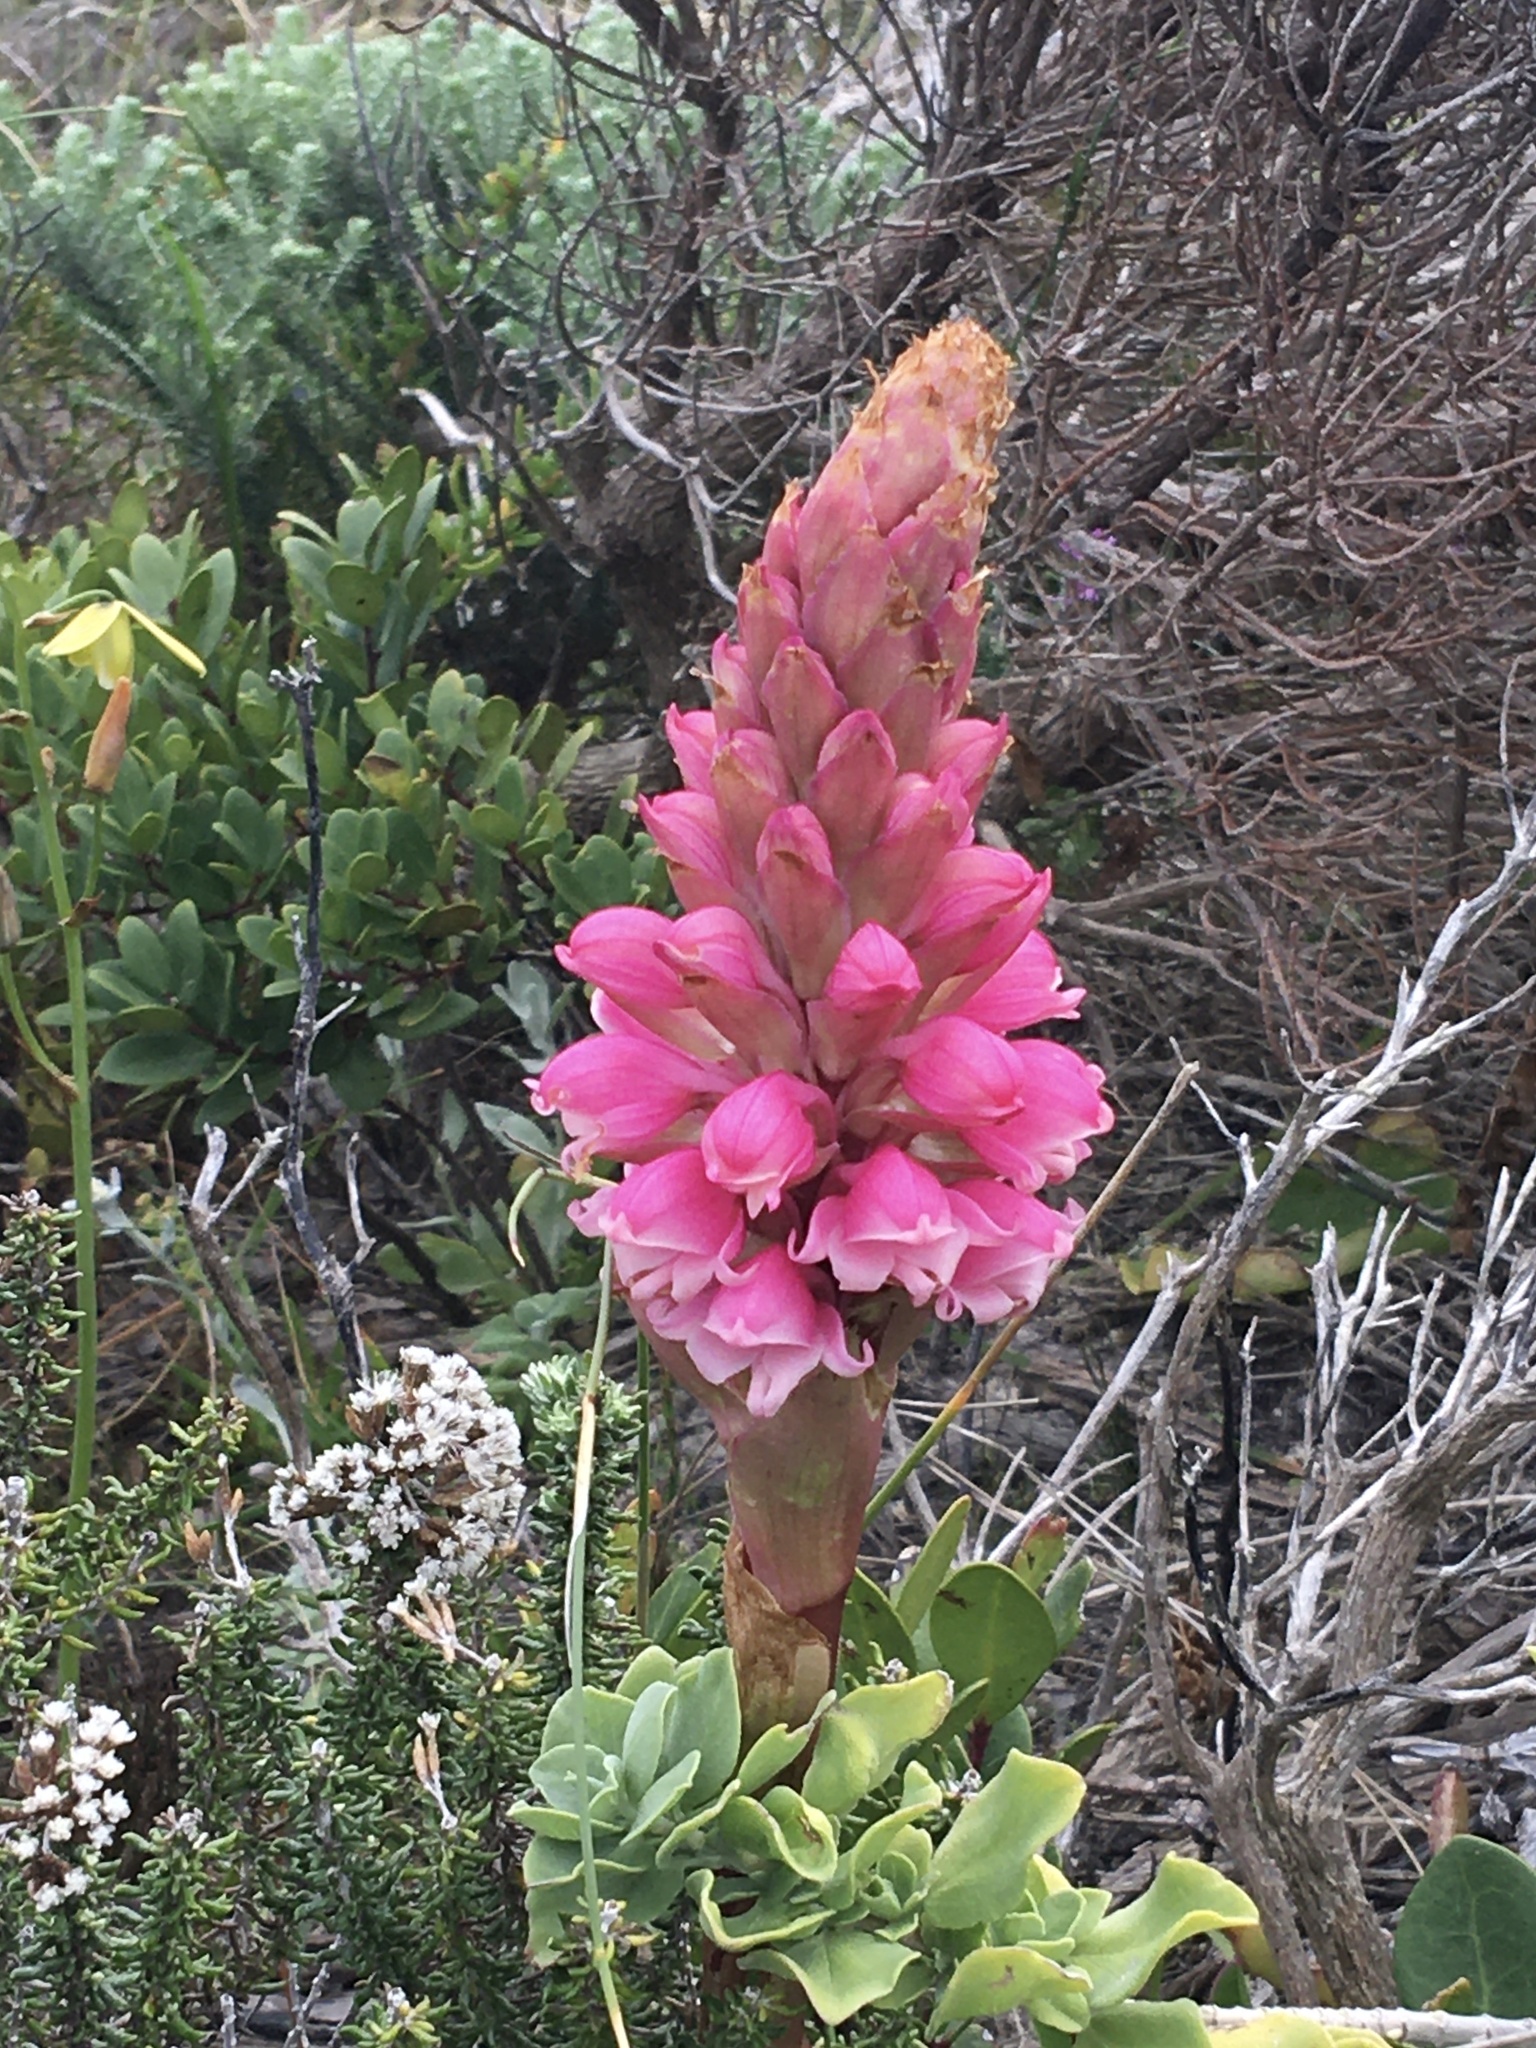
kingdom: Plantae
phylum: Tracheophyta
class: Liliopsida
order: Asparagales
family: Orchidaceae
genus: Satyrium
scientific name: Satyrium carneum
